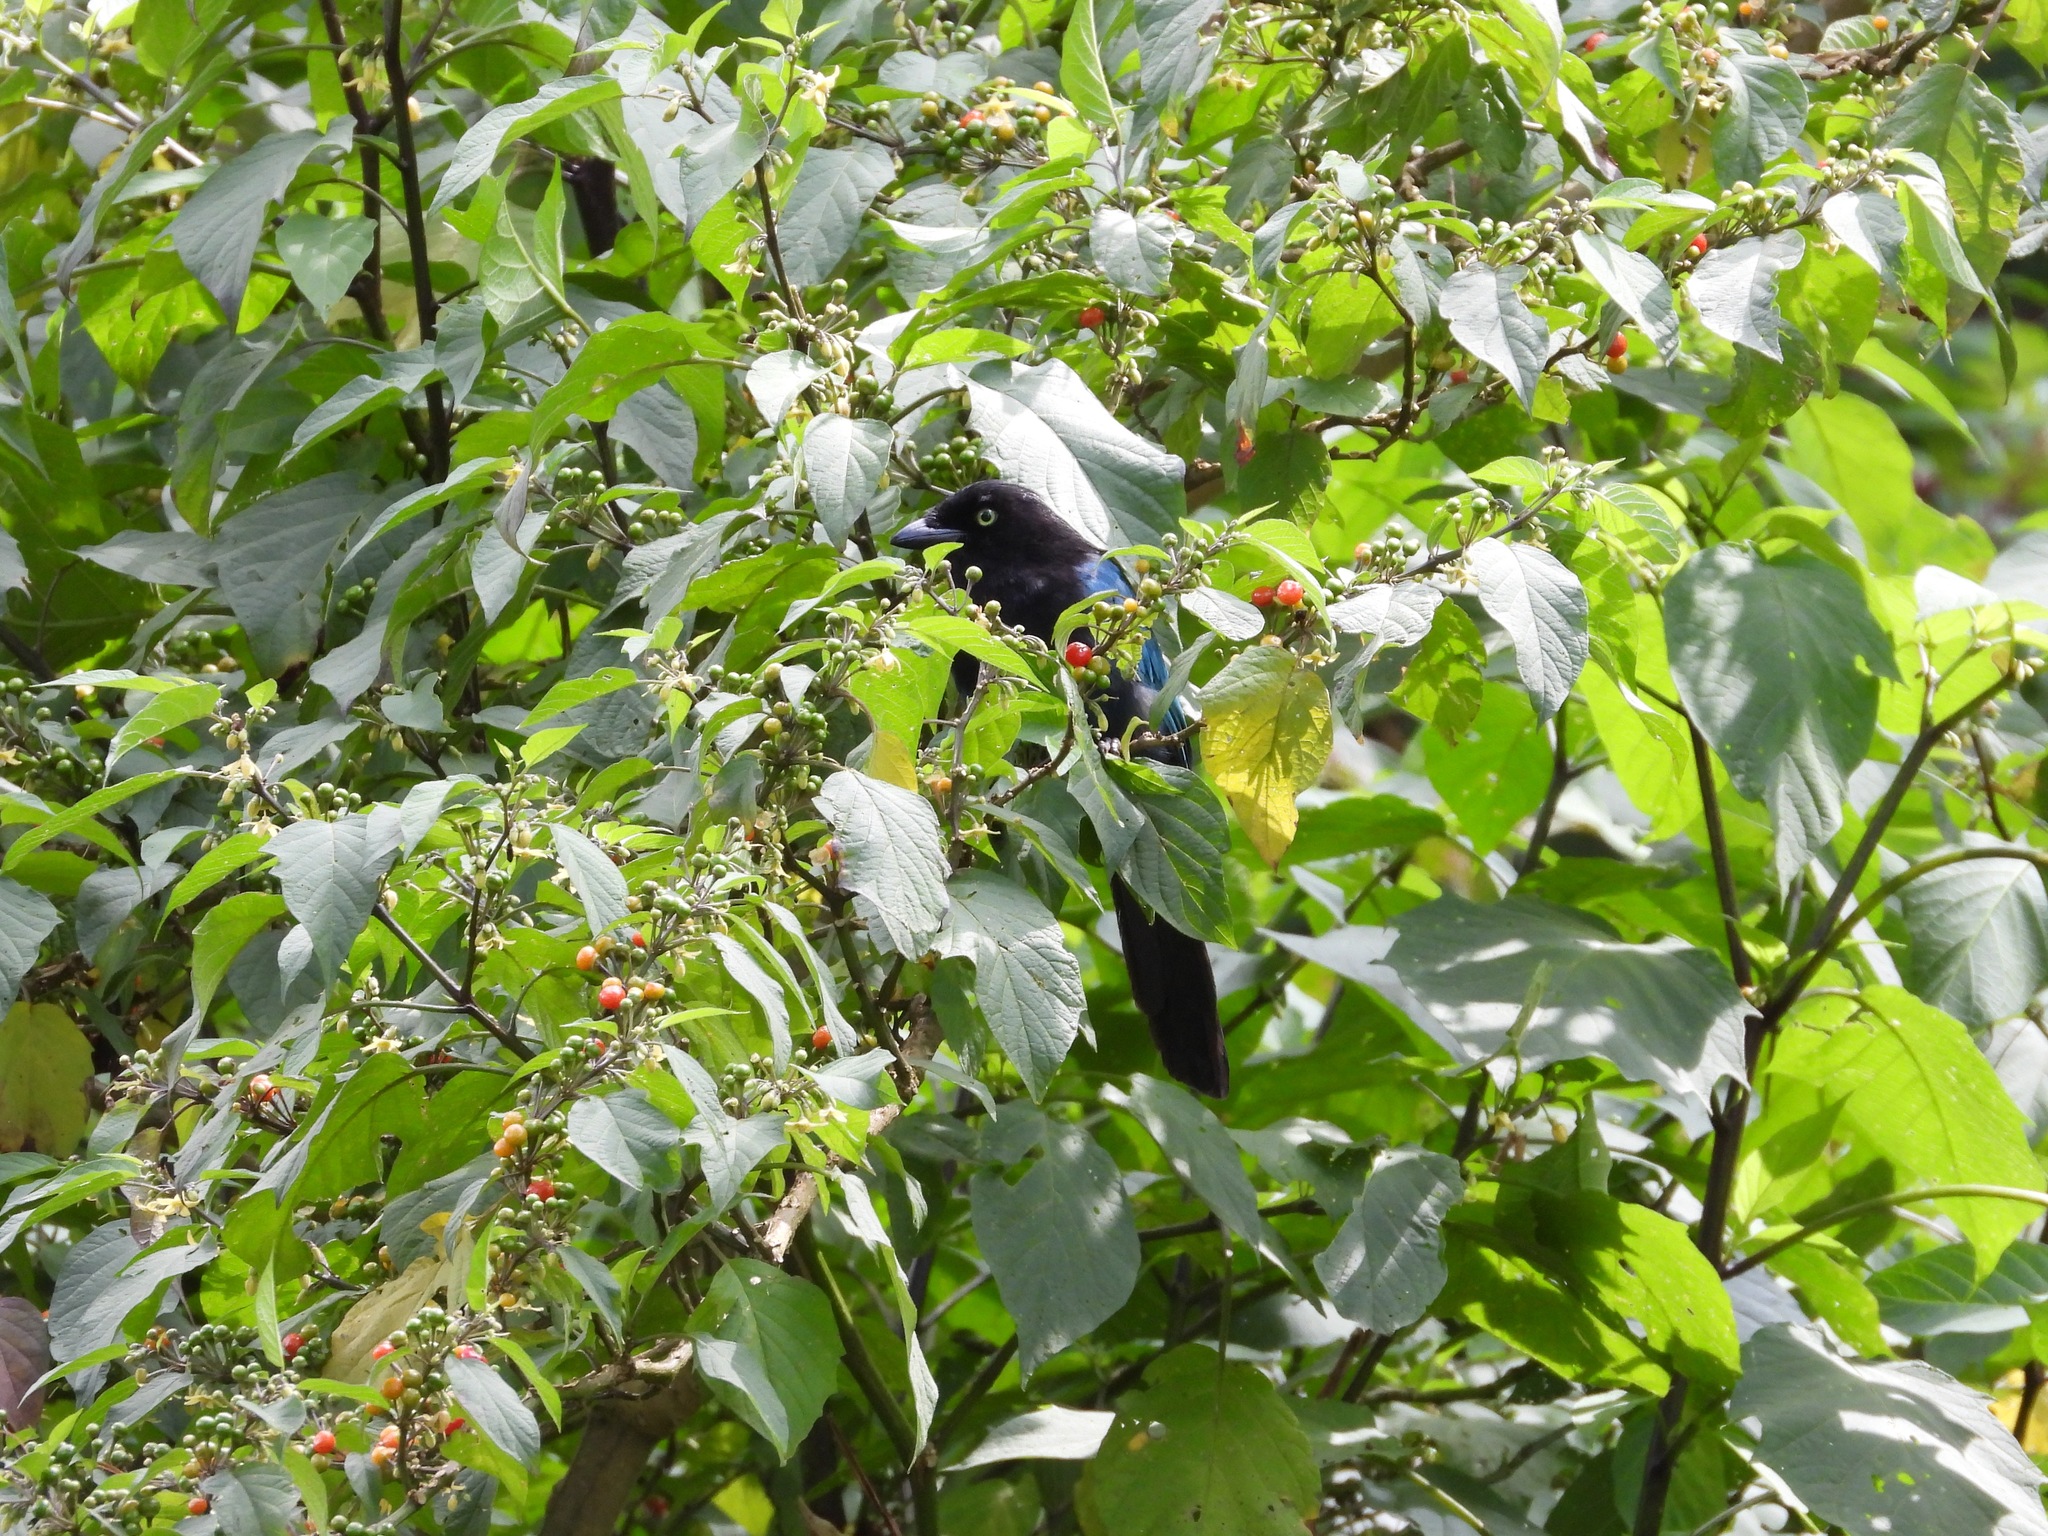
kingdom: Animalia
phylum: Chordata
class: Aves
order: Passeriformes
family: Corvidae
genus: Cyanocorax
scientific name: Cyanocorax melanocyaneus
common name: Bushy-crested jay
